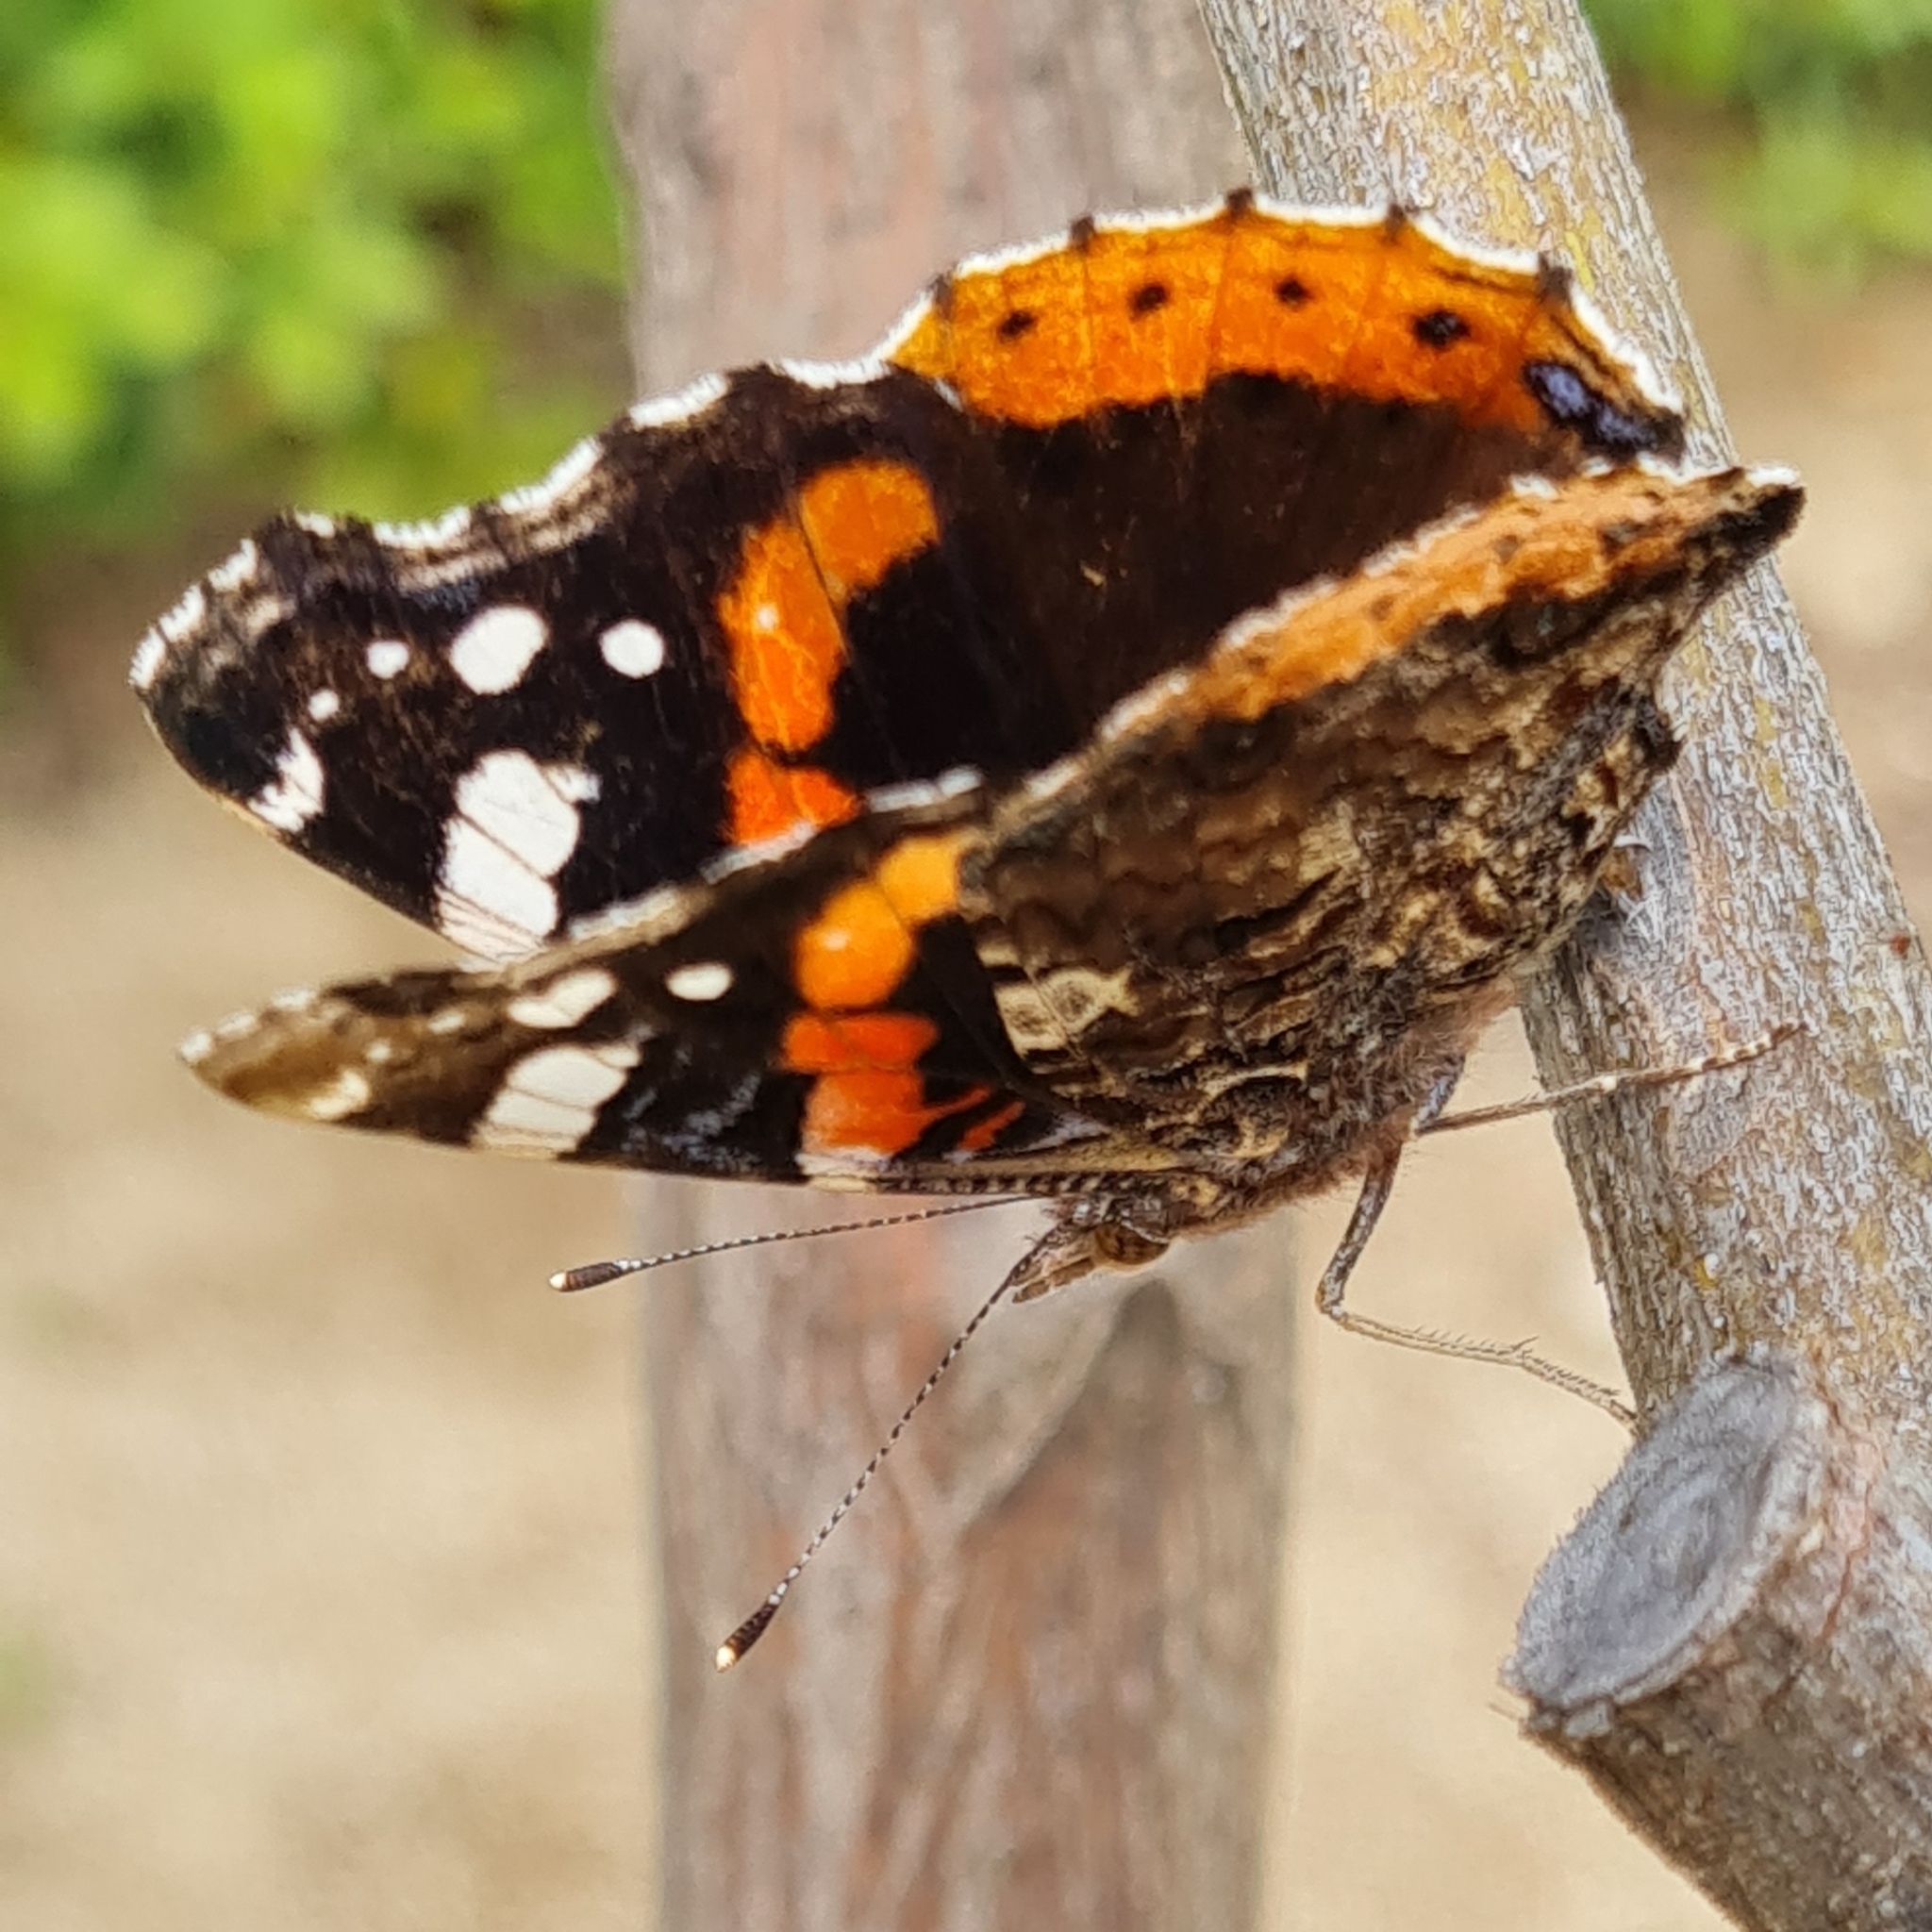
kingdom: Animalia
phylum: Arthropoda
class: Insecta
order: Lepidoptera
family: Nymphalidae
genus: Vanessa
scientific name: Vanessa atalanta
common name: Red admiral
